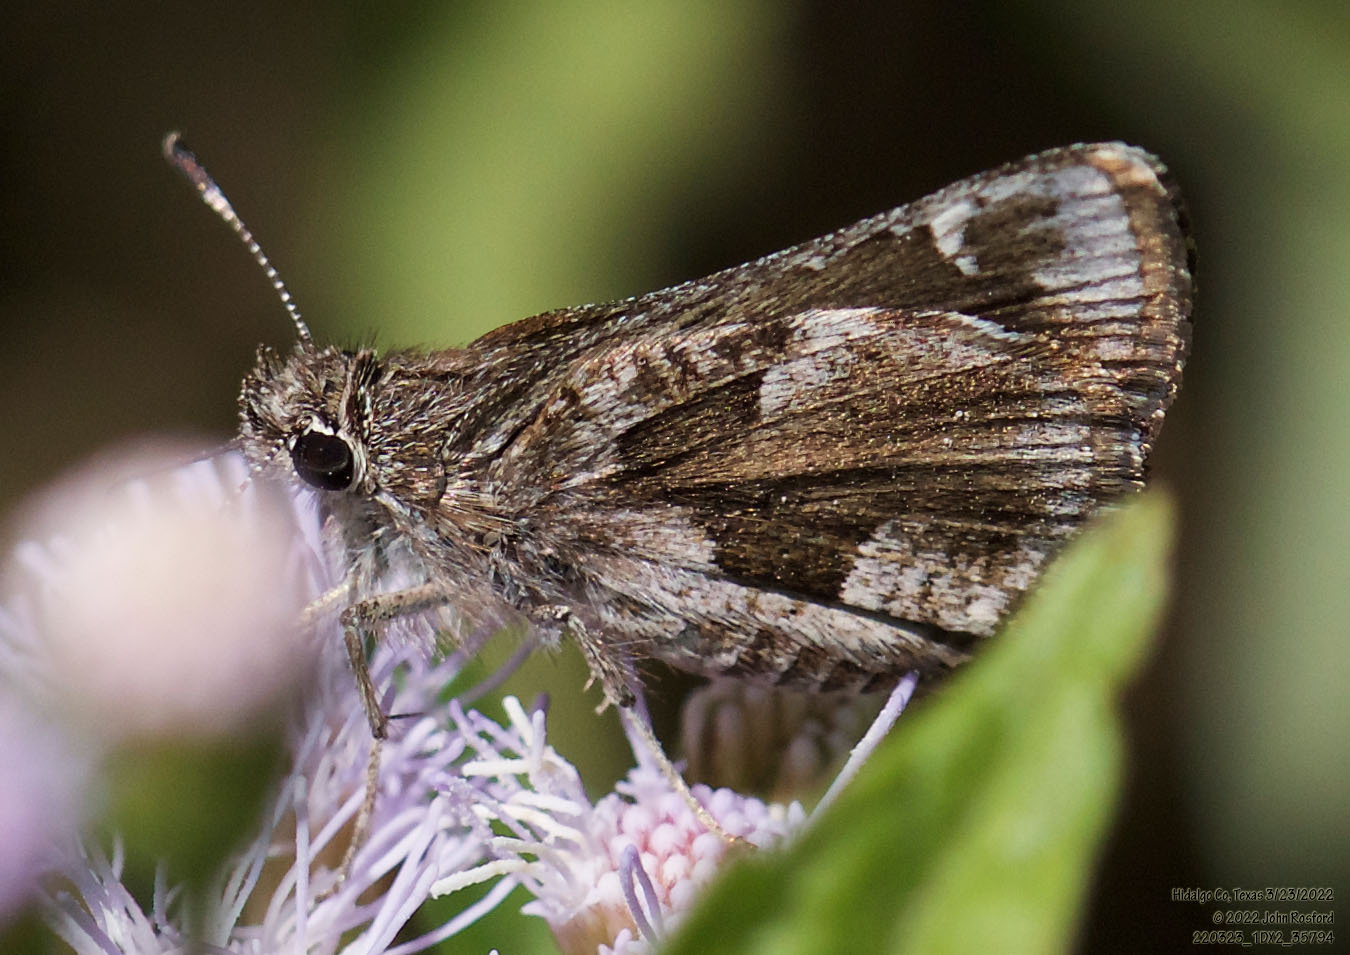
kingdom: Animalia
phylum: Arthropoda
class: Insecta
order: Lepidoptera
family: Hesperiidae
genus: Mastor
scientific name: Mastor nysa
